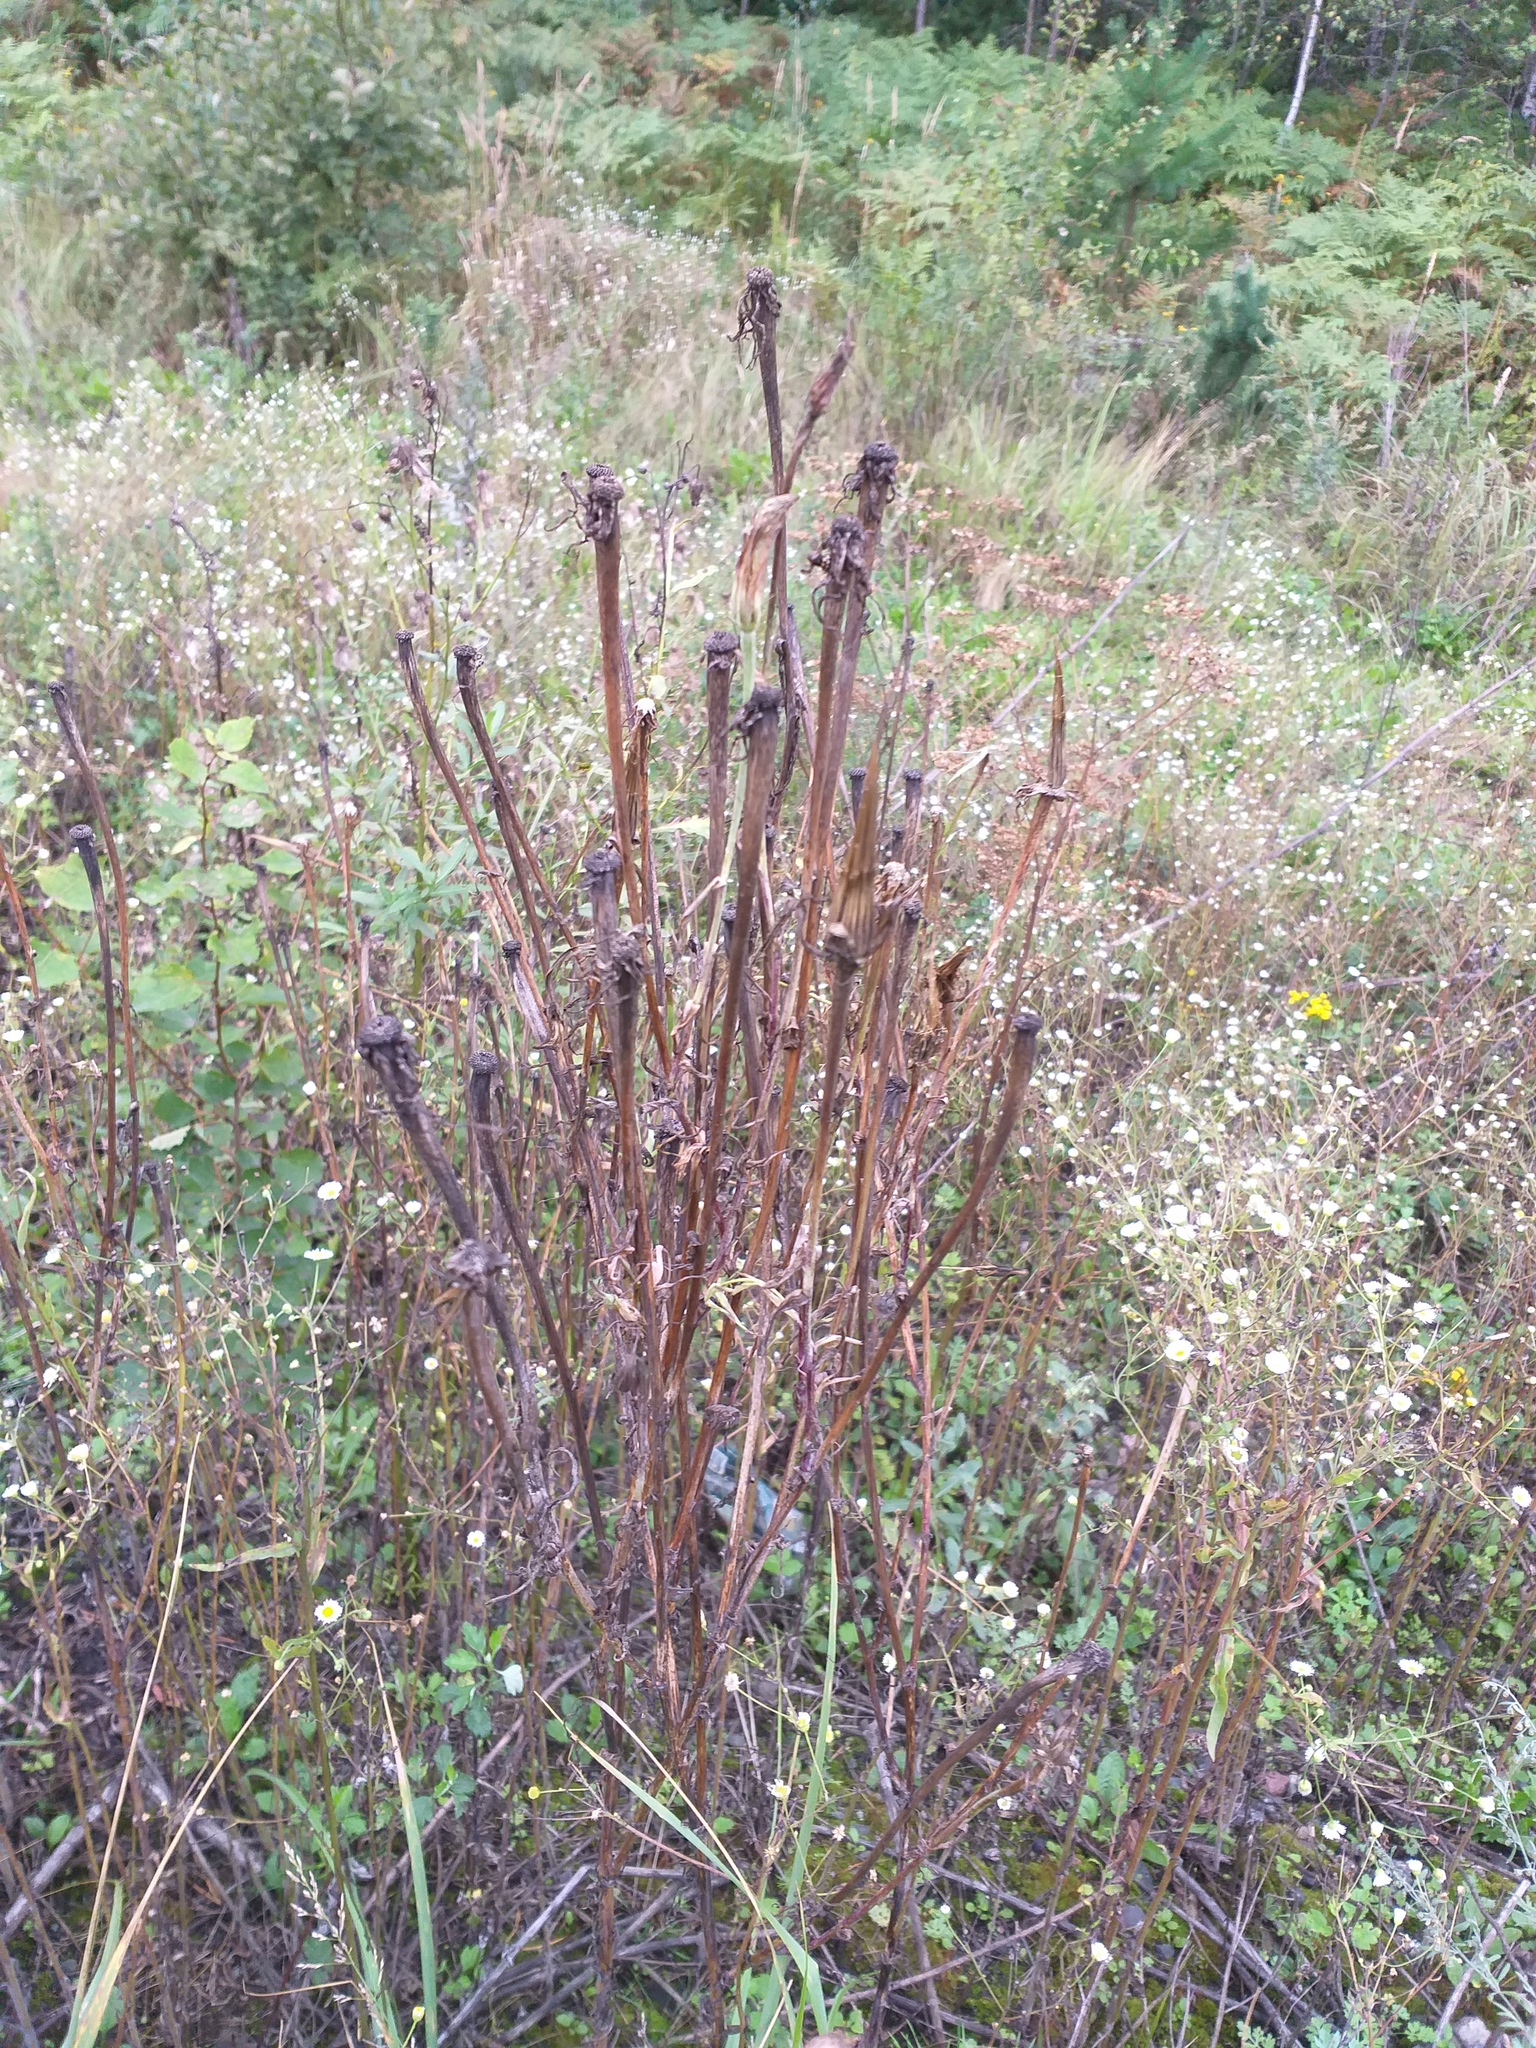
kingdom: Plantae
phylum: Tracheophyta
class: Magnoliopsida
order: Asterales
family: Asteraceae
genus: Tragopogon
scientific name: Tragopogon dubius
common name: Yellow salsify
